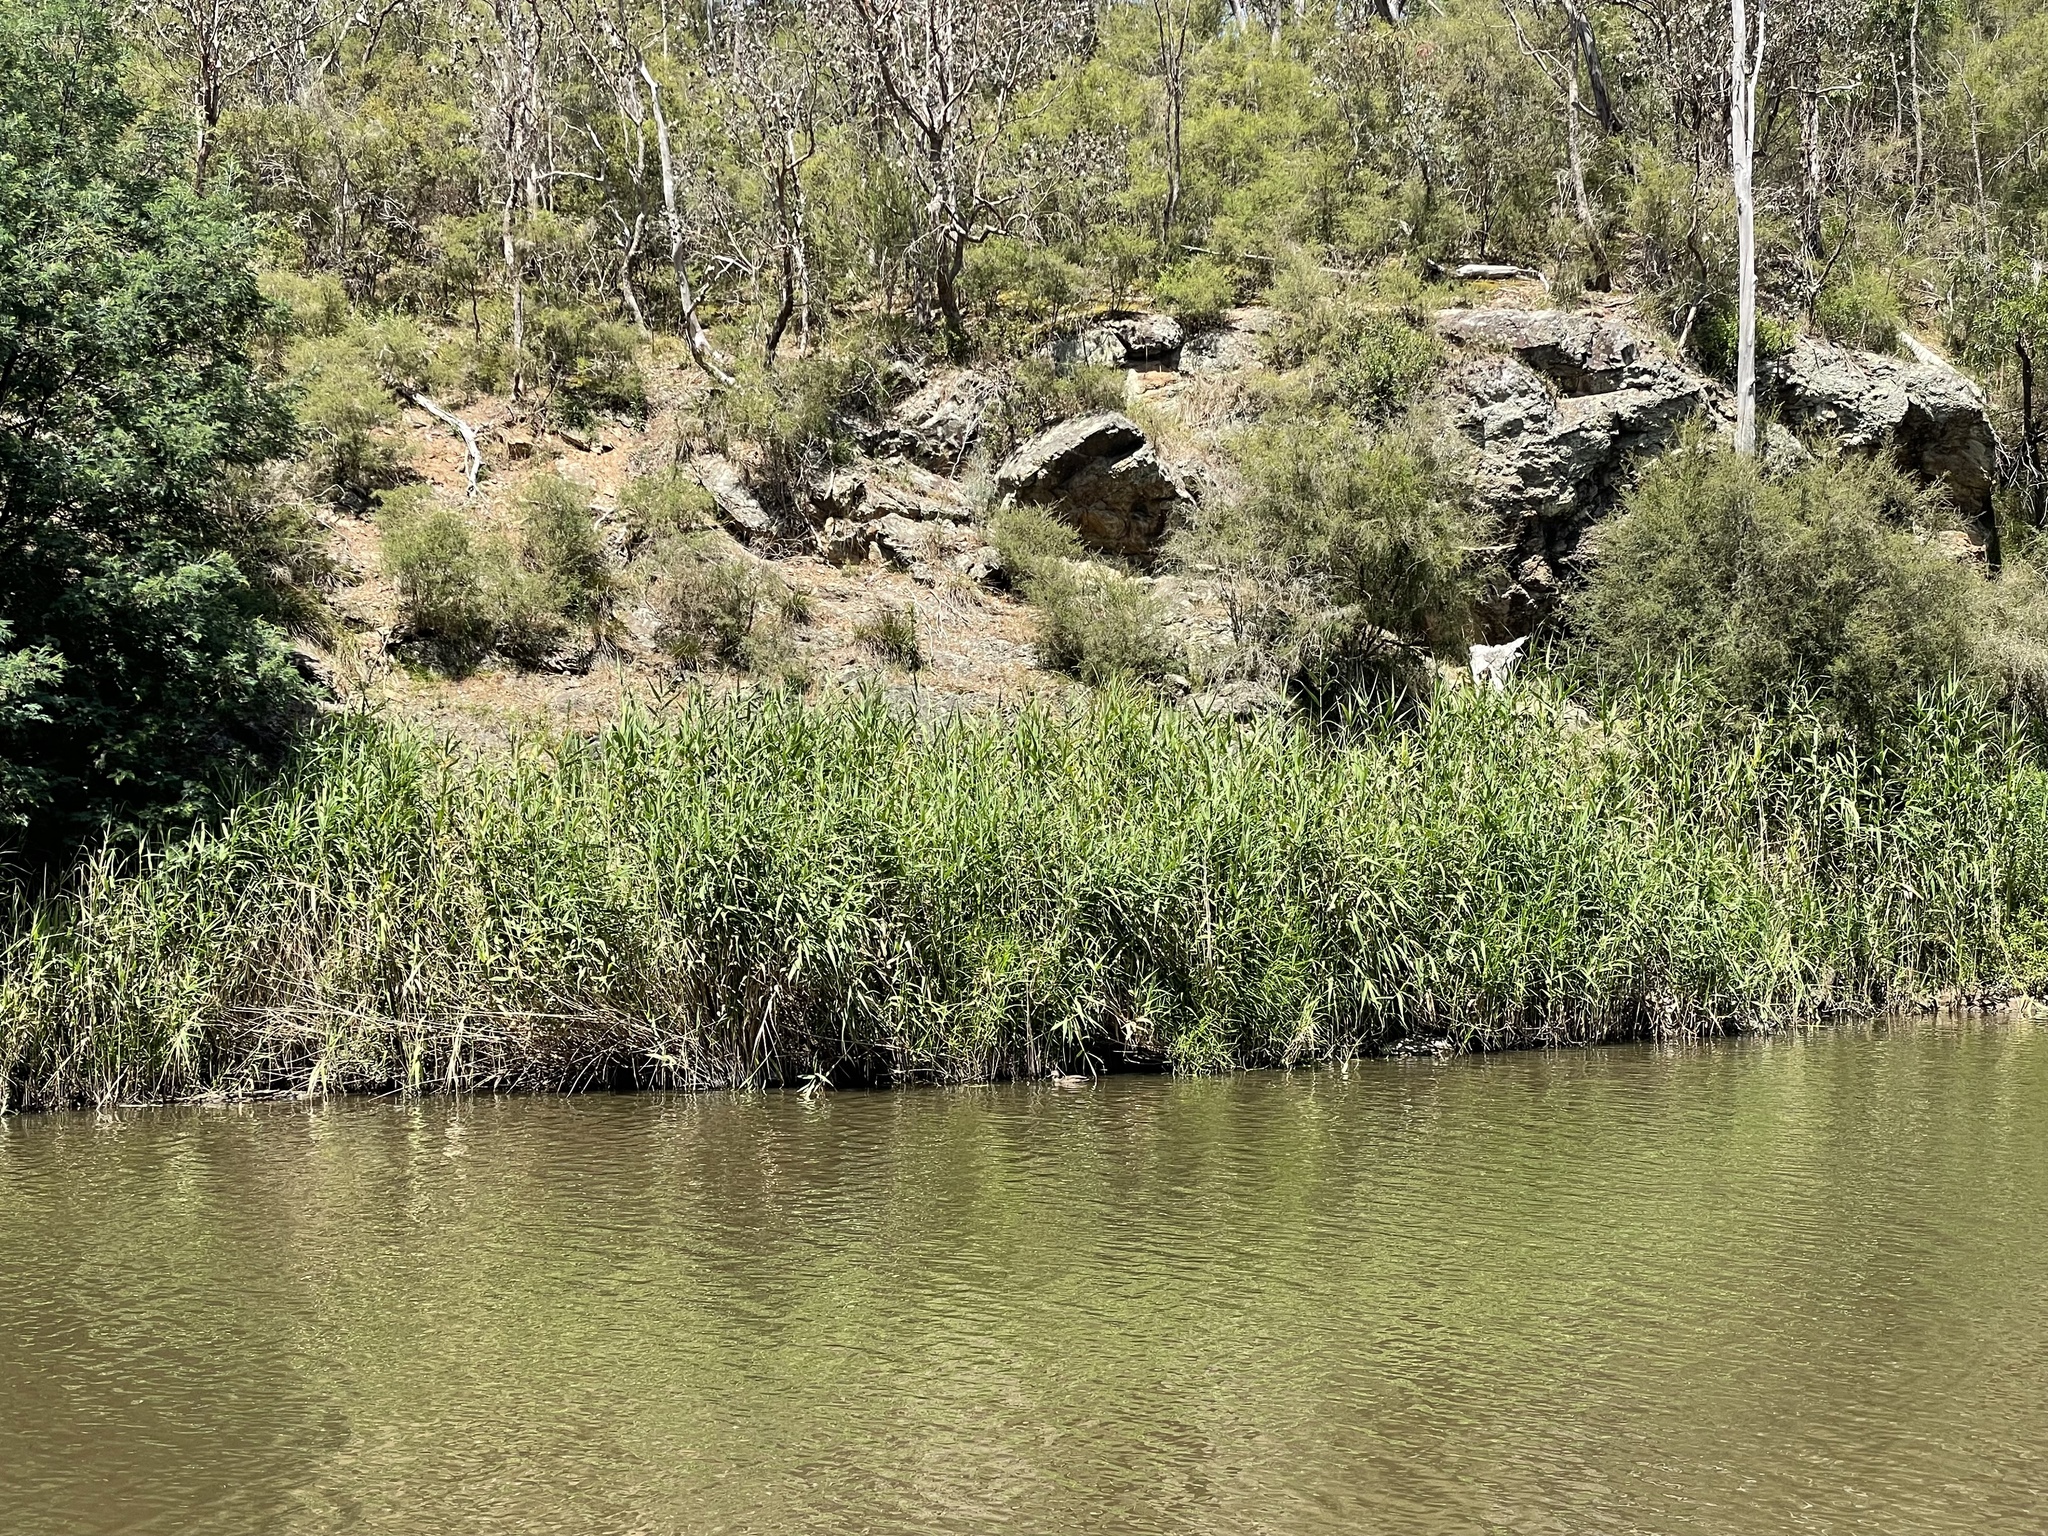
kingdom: Plantae
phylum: Tracheophyta
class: Liliopsida
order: Poales
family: Poaceae
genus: Phragmites
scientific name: Phragmites australis
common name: Common reed
